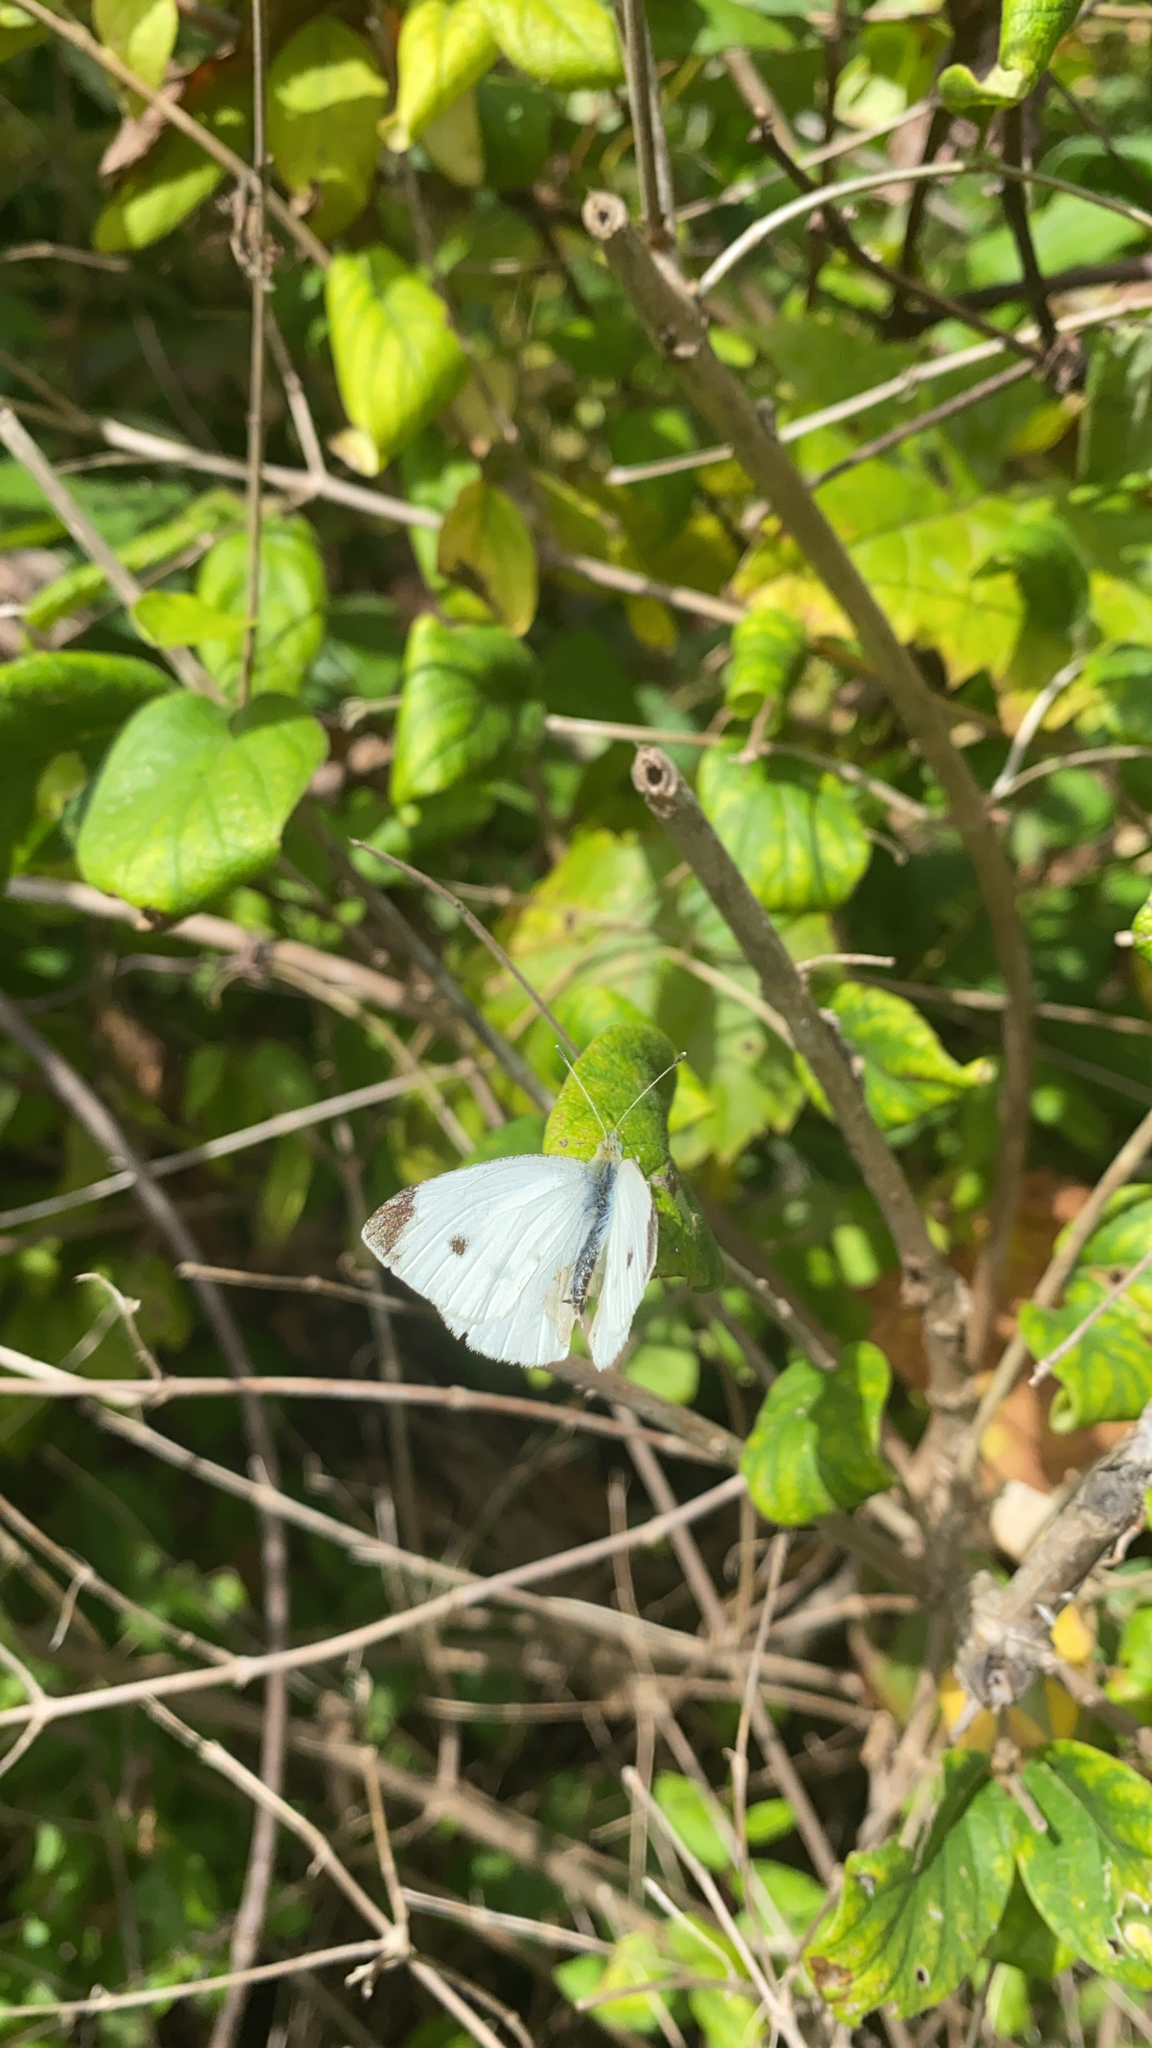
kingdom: Animalia
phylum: Arthropoda
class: Insecta
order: Lepidoptera
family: Pieridae
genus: Pieris
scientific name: Pieris rapae
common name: Small white
